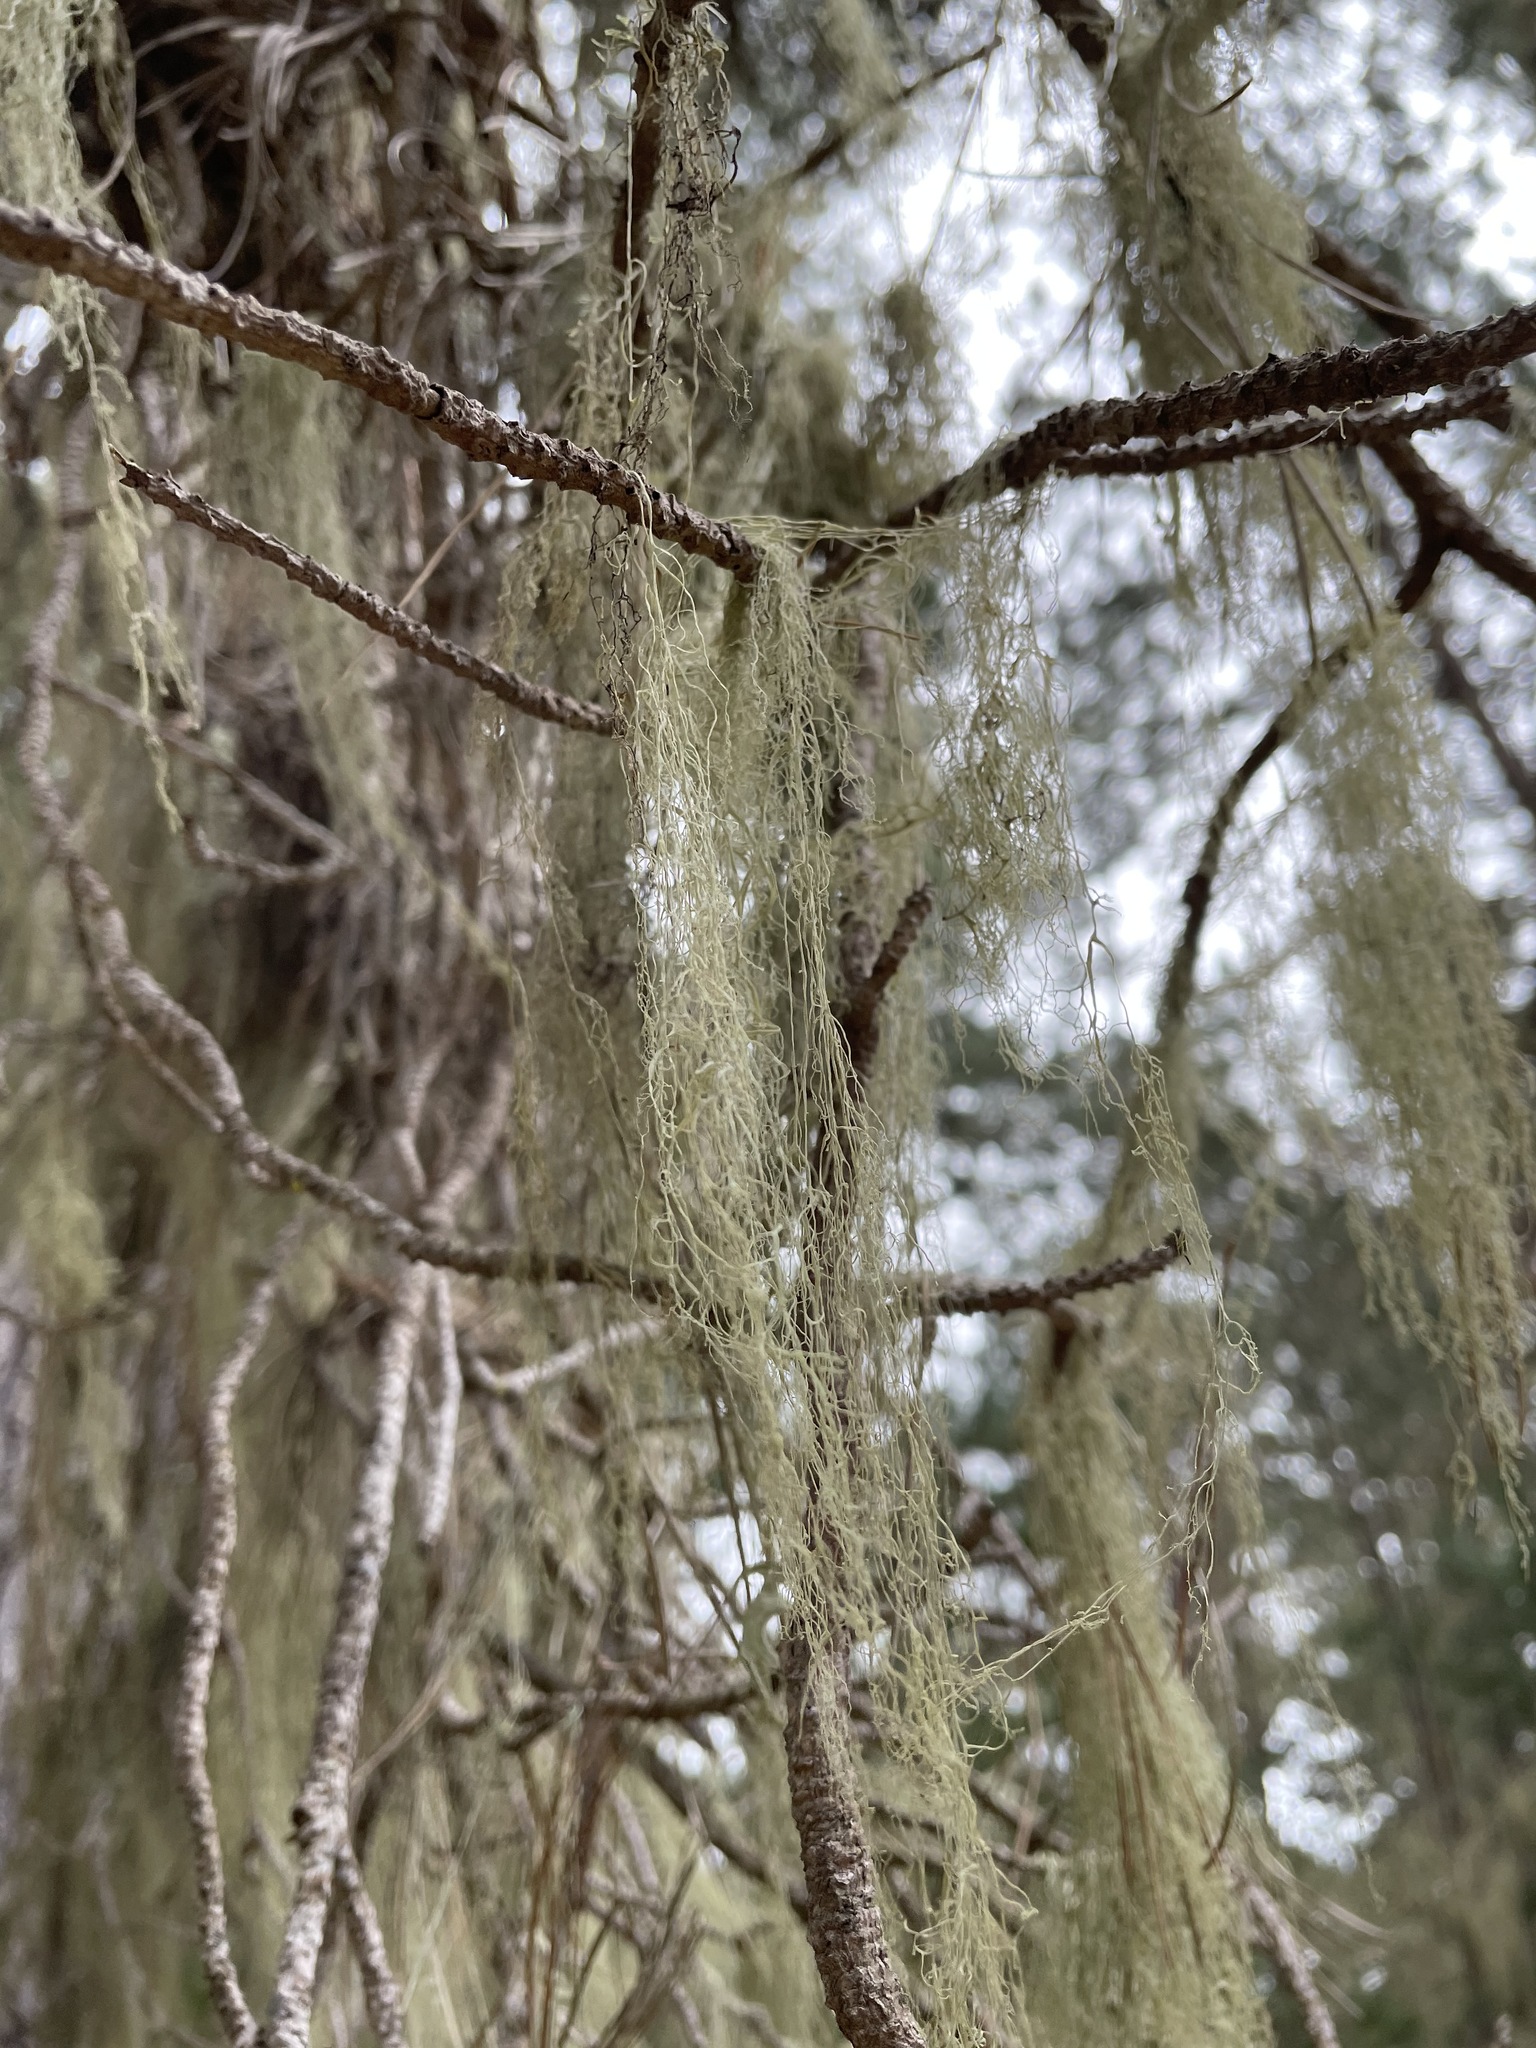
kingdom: Fungi
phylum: Ascomycota
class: Lecanoromycetes
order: Lecanorales
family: Ramalinaceae
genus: Ramalina
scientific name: Ramalina menziesii
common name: Lace lichen
